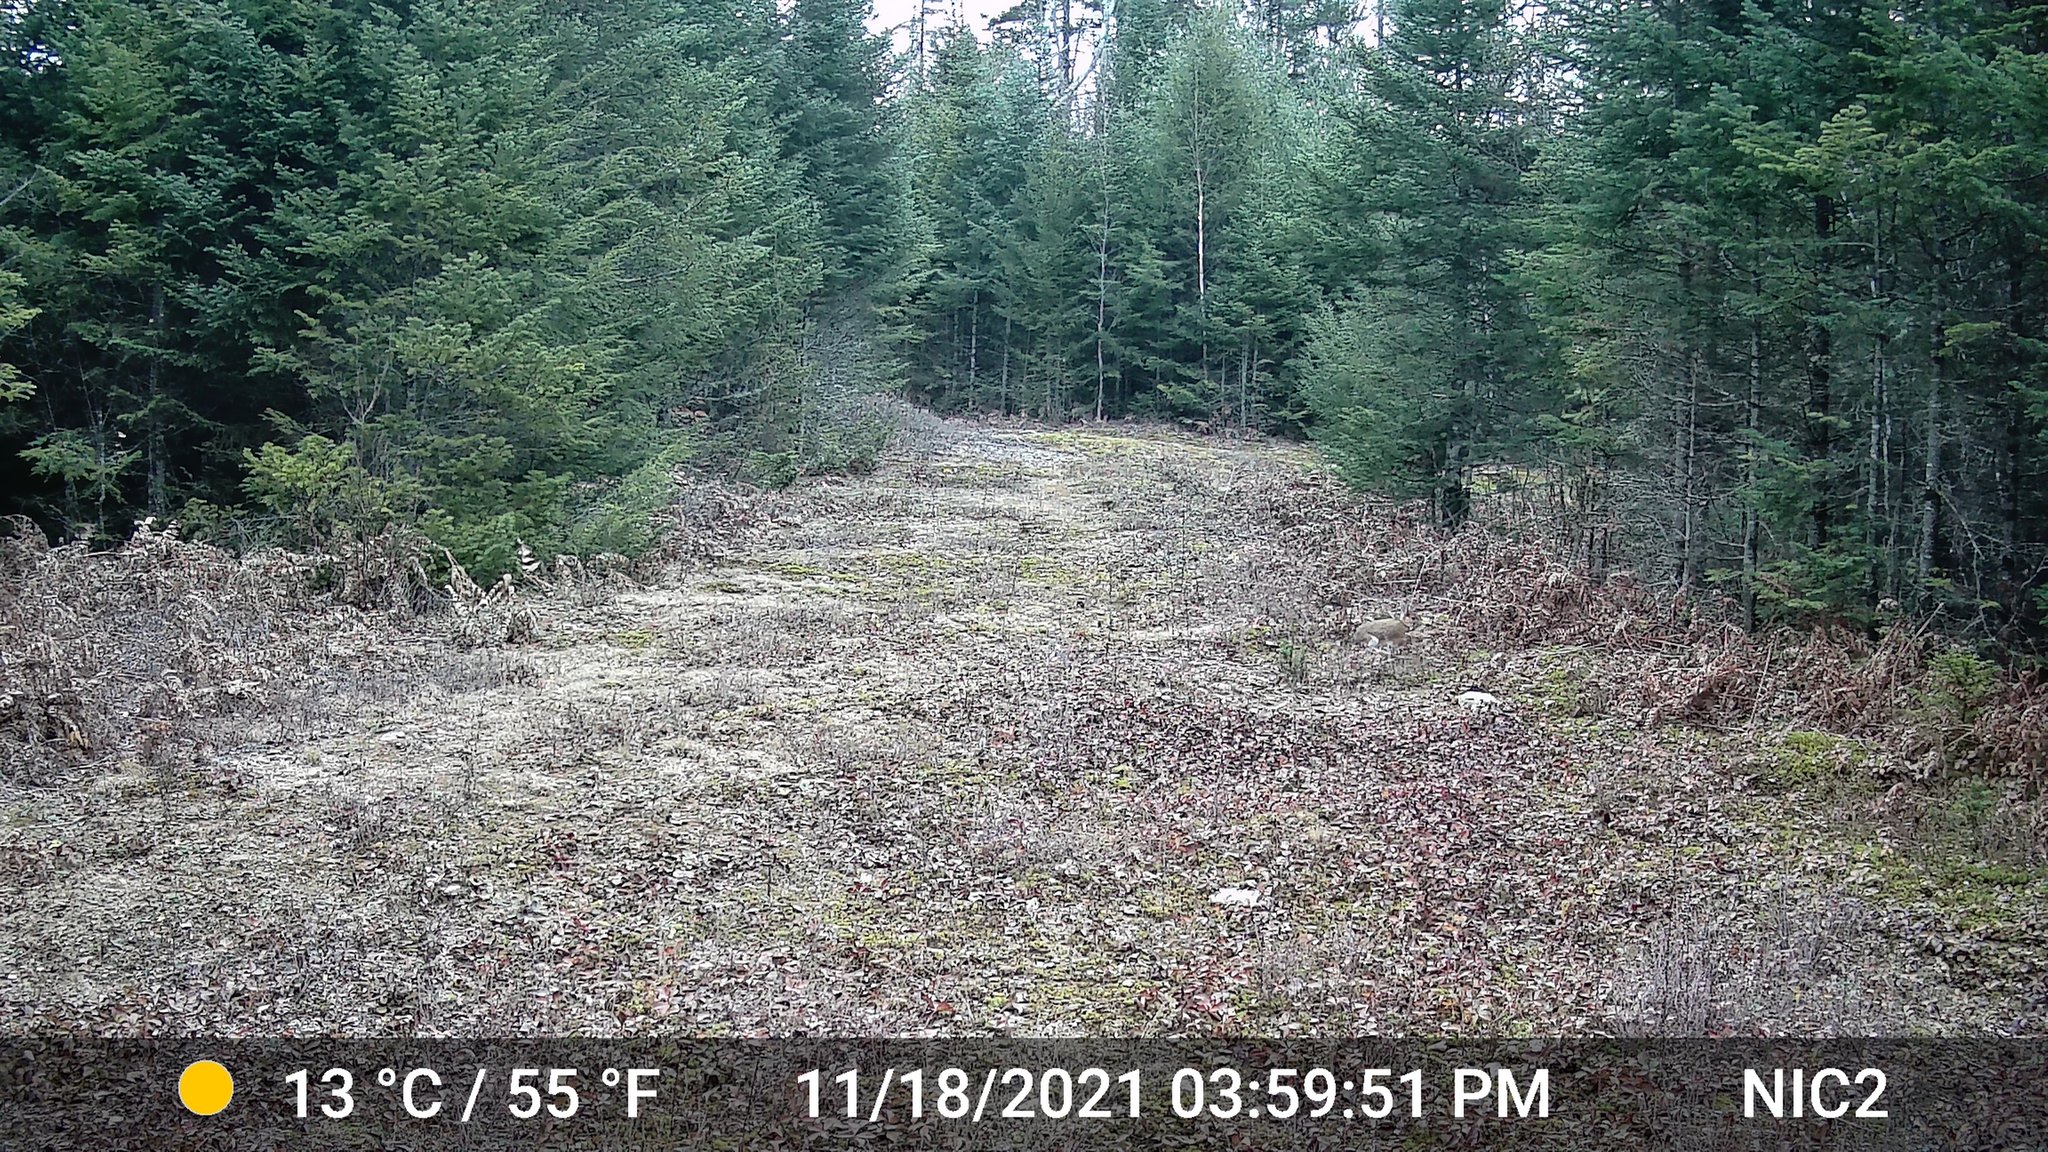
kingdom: Animalia
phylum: Chordata
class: Mammalia
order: Lagomorpha
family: Leporidae
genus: Lepus
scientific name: Lepus americanus
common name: Snowshoe hare
